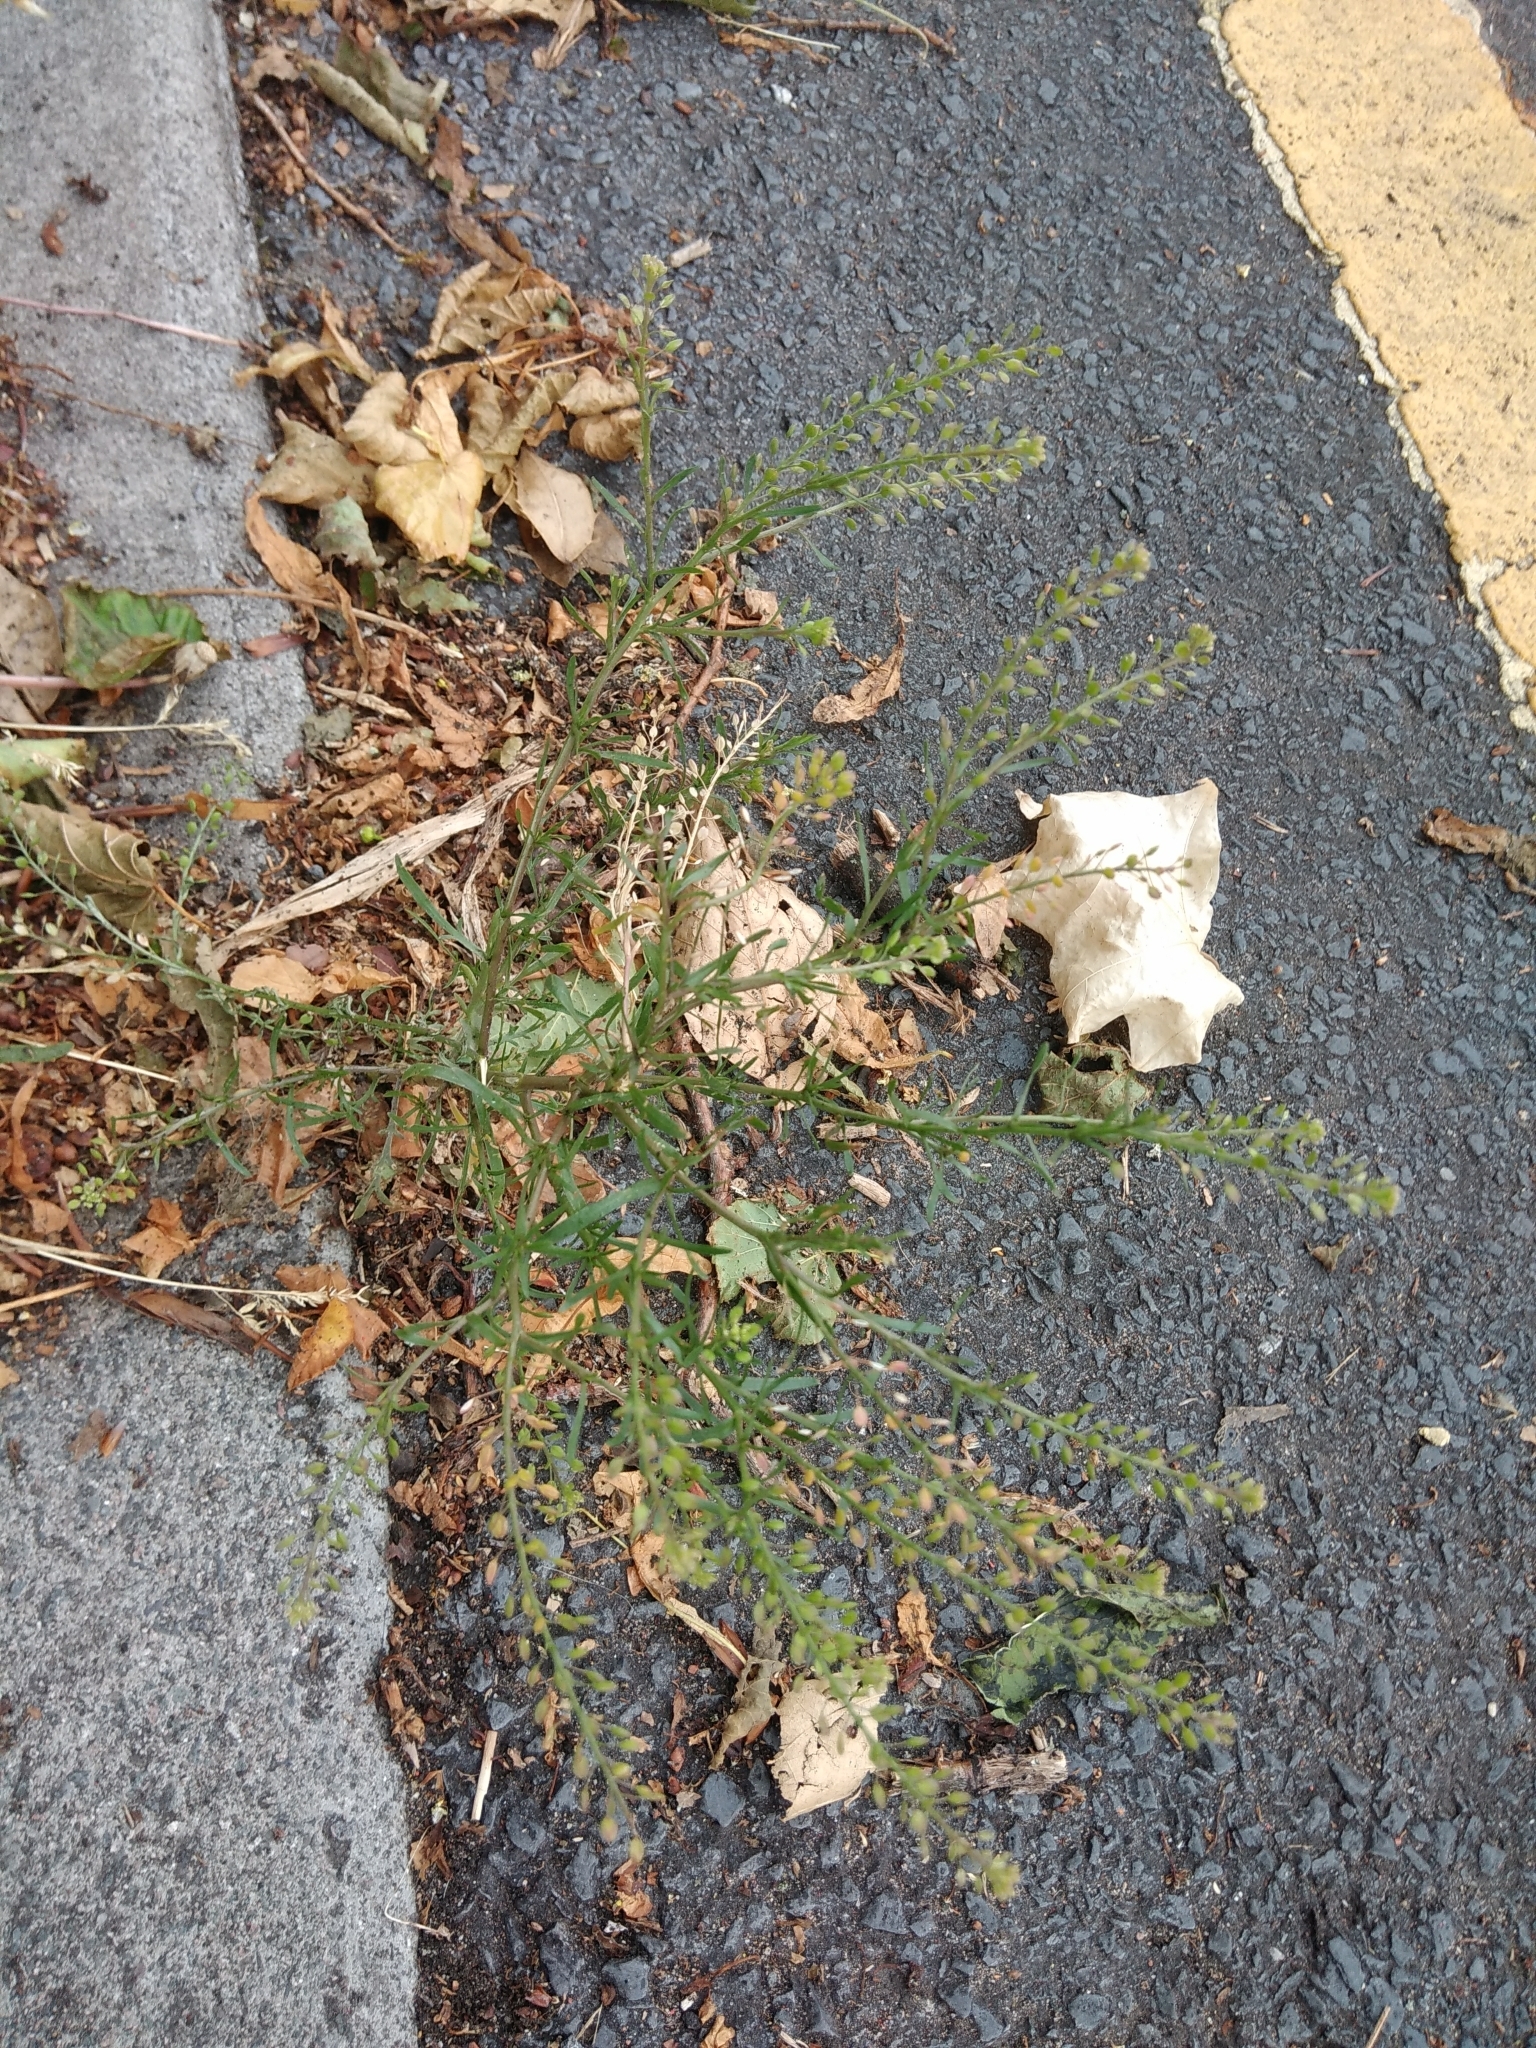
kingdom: Plantae
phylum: Tracheophyta
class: Magnoliopsida
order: Brassicales
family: Brassicaceae
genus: Lepidium
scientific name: Lepidium ruderale
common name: Narrow-leaved pepperwort
